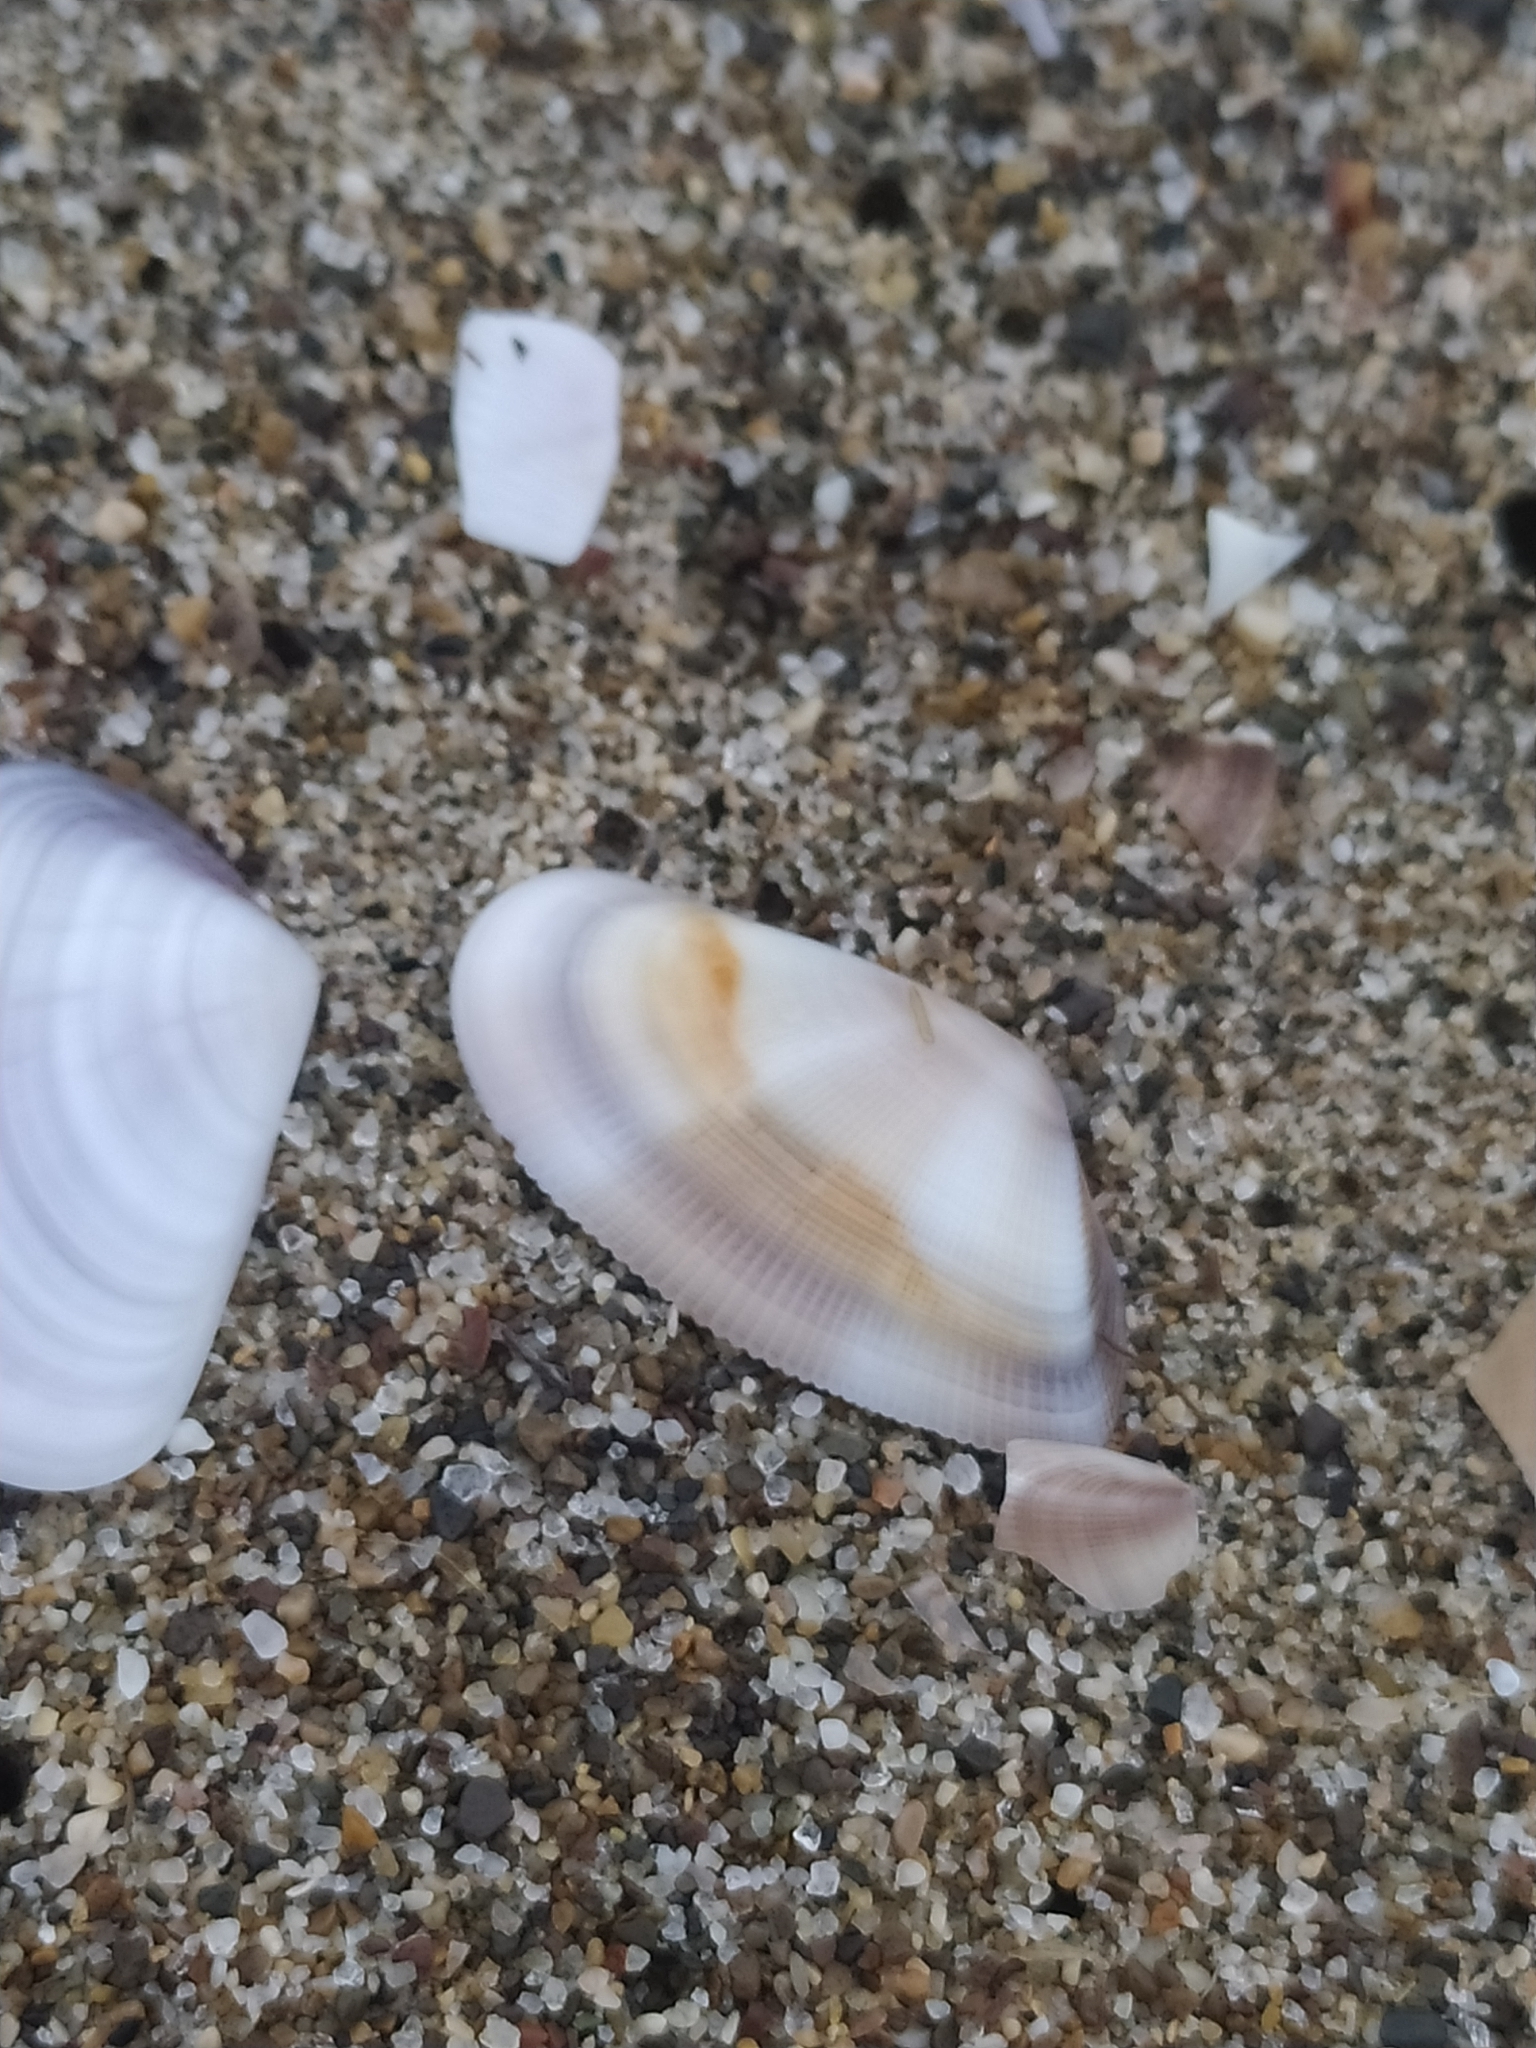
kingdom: Animalia
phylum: Mollusca
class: Bivalvia
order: Cardiida
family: Donacidae
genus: Donax
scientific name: Donax semistriatus
